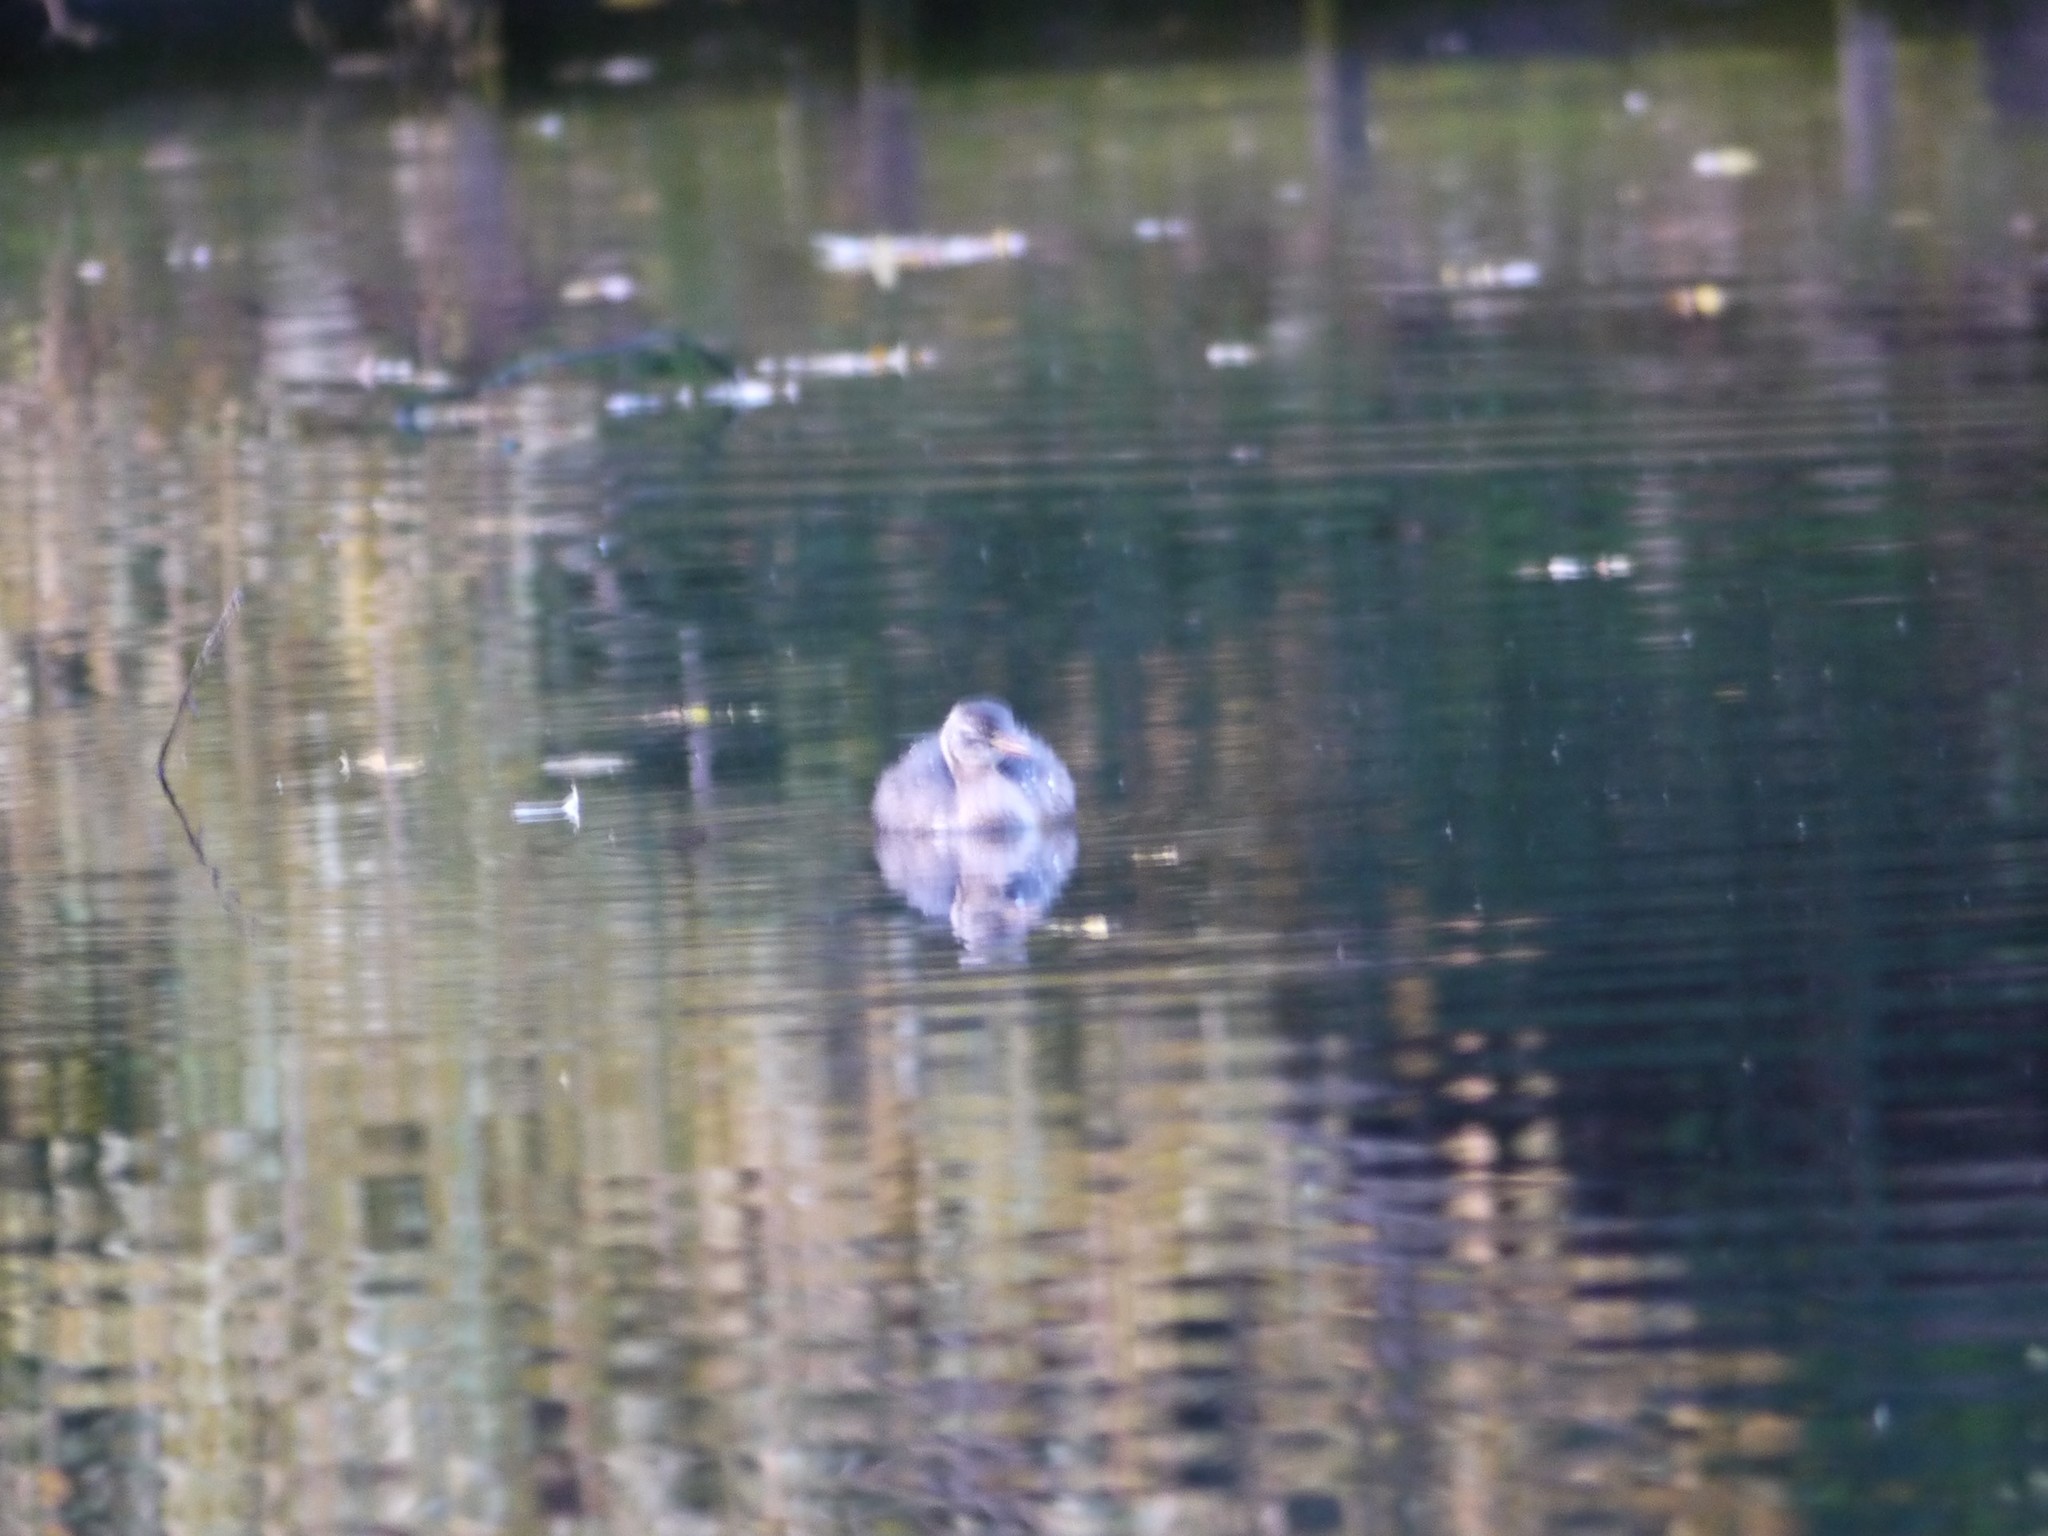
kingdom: Animalia
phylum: Chordata
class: Aves
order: Podicipediformes
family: Podicipedidae
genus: Tachybaptus
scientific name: Tachybaptus ruficollis
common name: Little grebe
